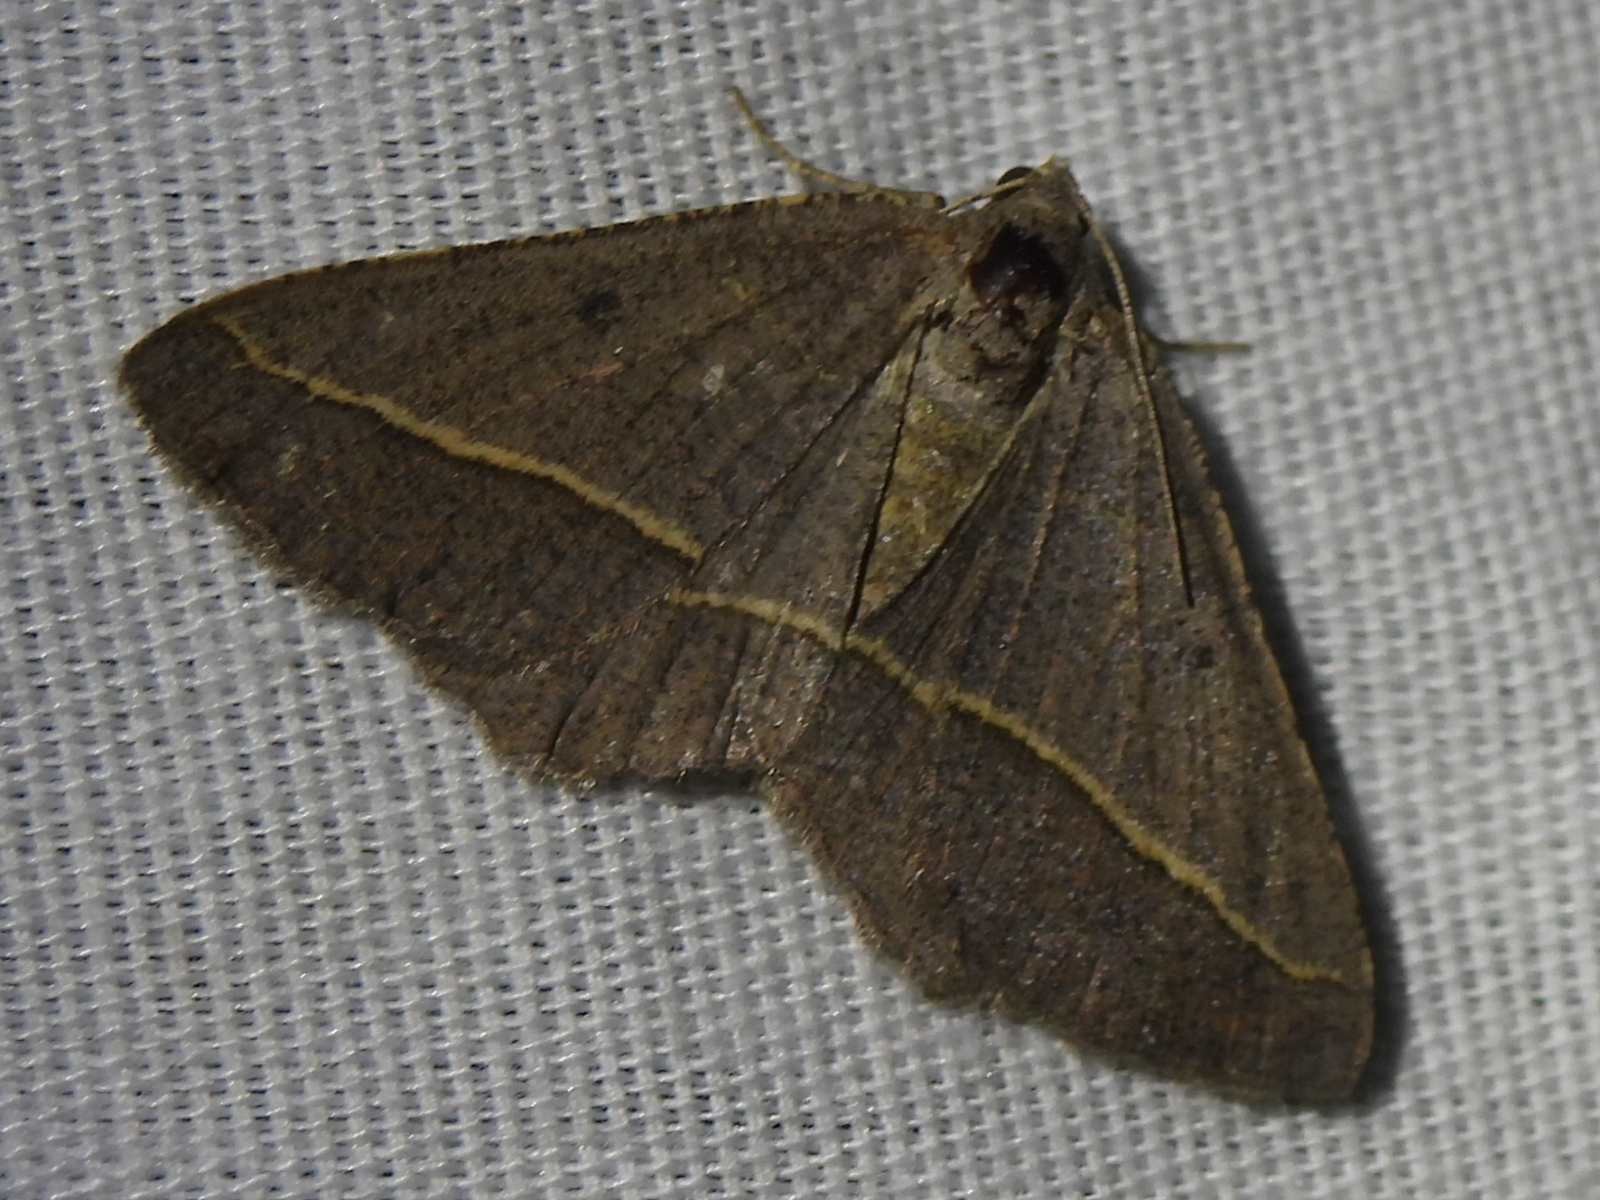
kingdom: Animalia
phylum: Arthropoda
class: Insecta
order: Lepidoptera
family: Geometridae
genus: Digrammia
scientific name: Digrammia irrorata
